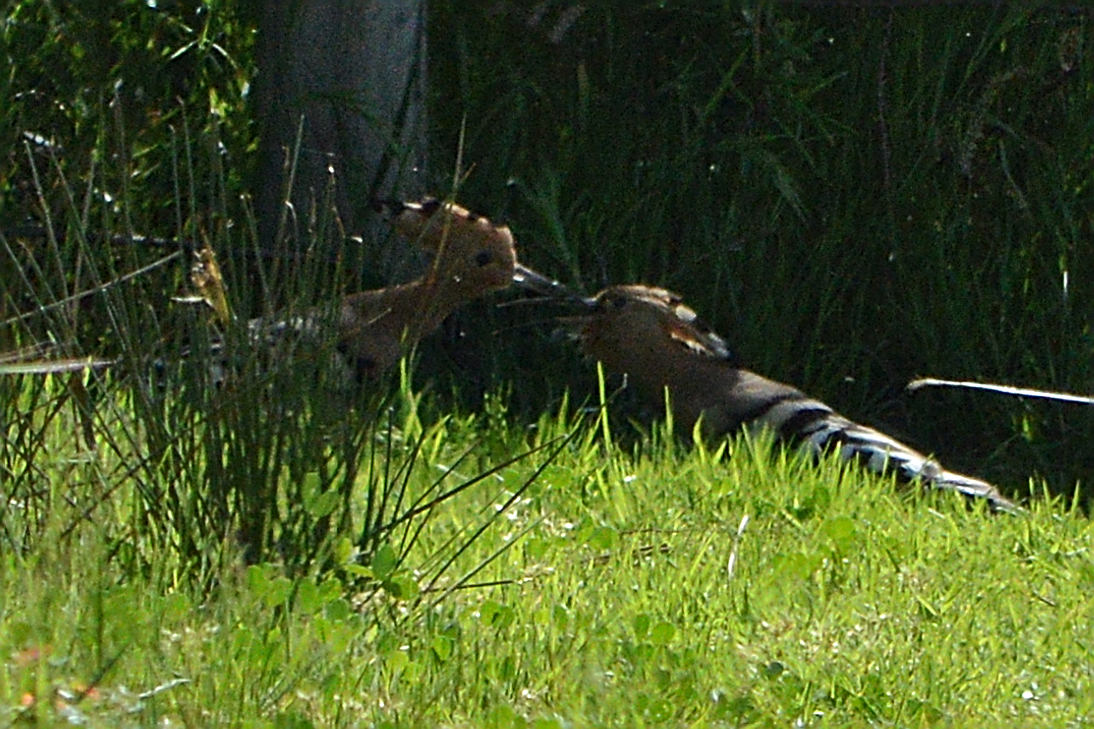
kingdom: Animalia
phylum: Chordata
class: Aves
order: Bucerotiformes
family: Upupidae
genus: Upupa
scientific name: Upupa epops
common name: Eurasian hoopoe
